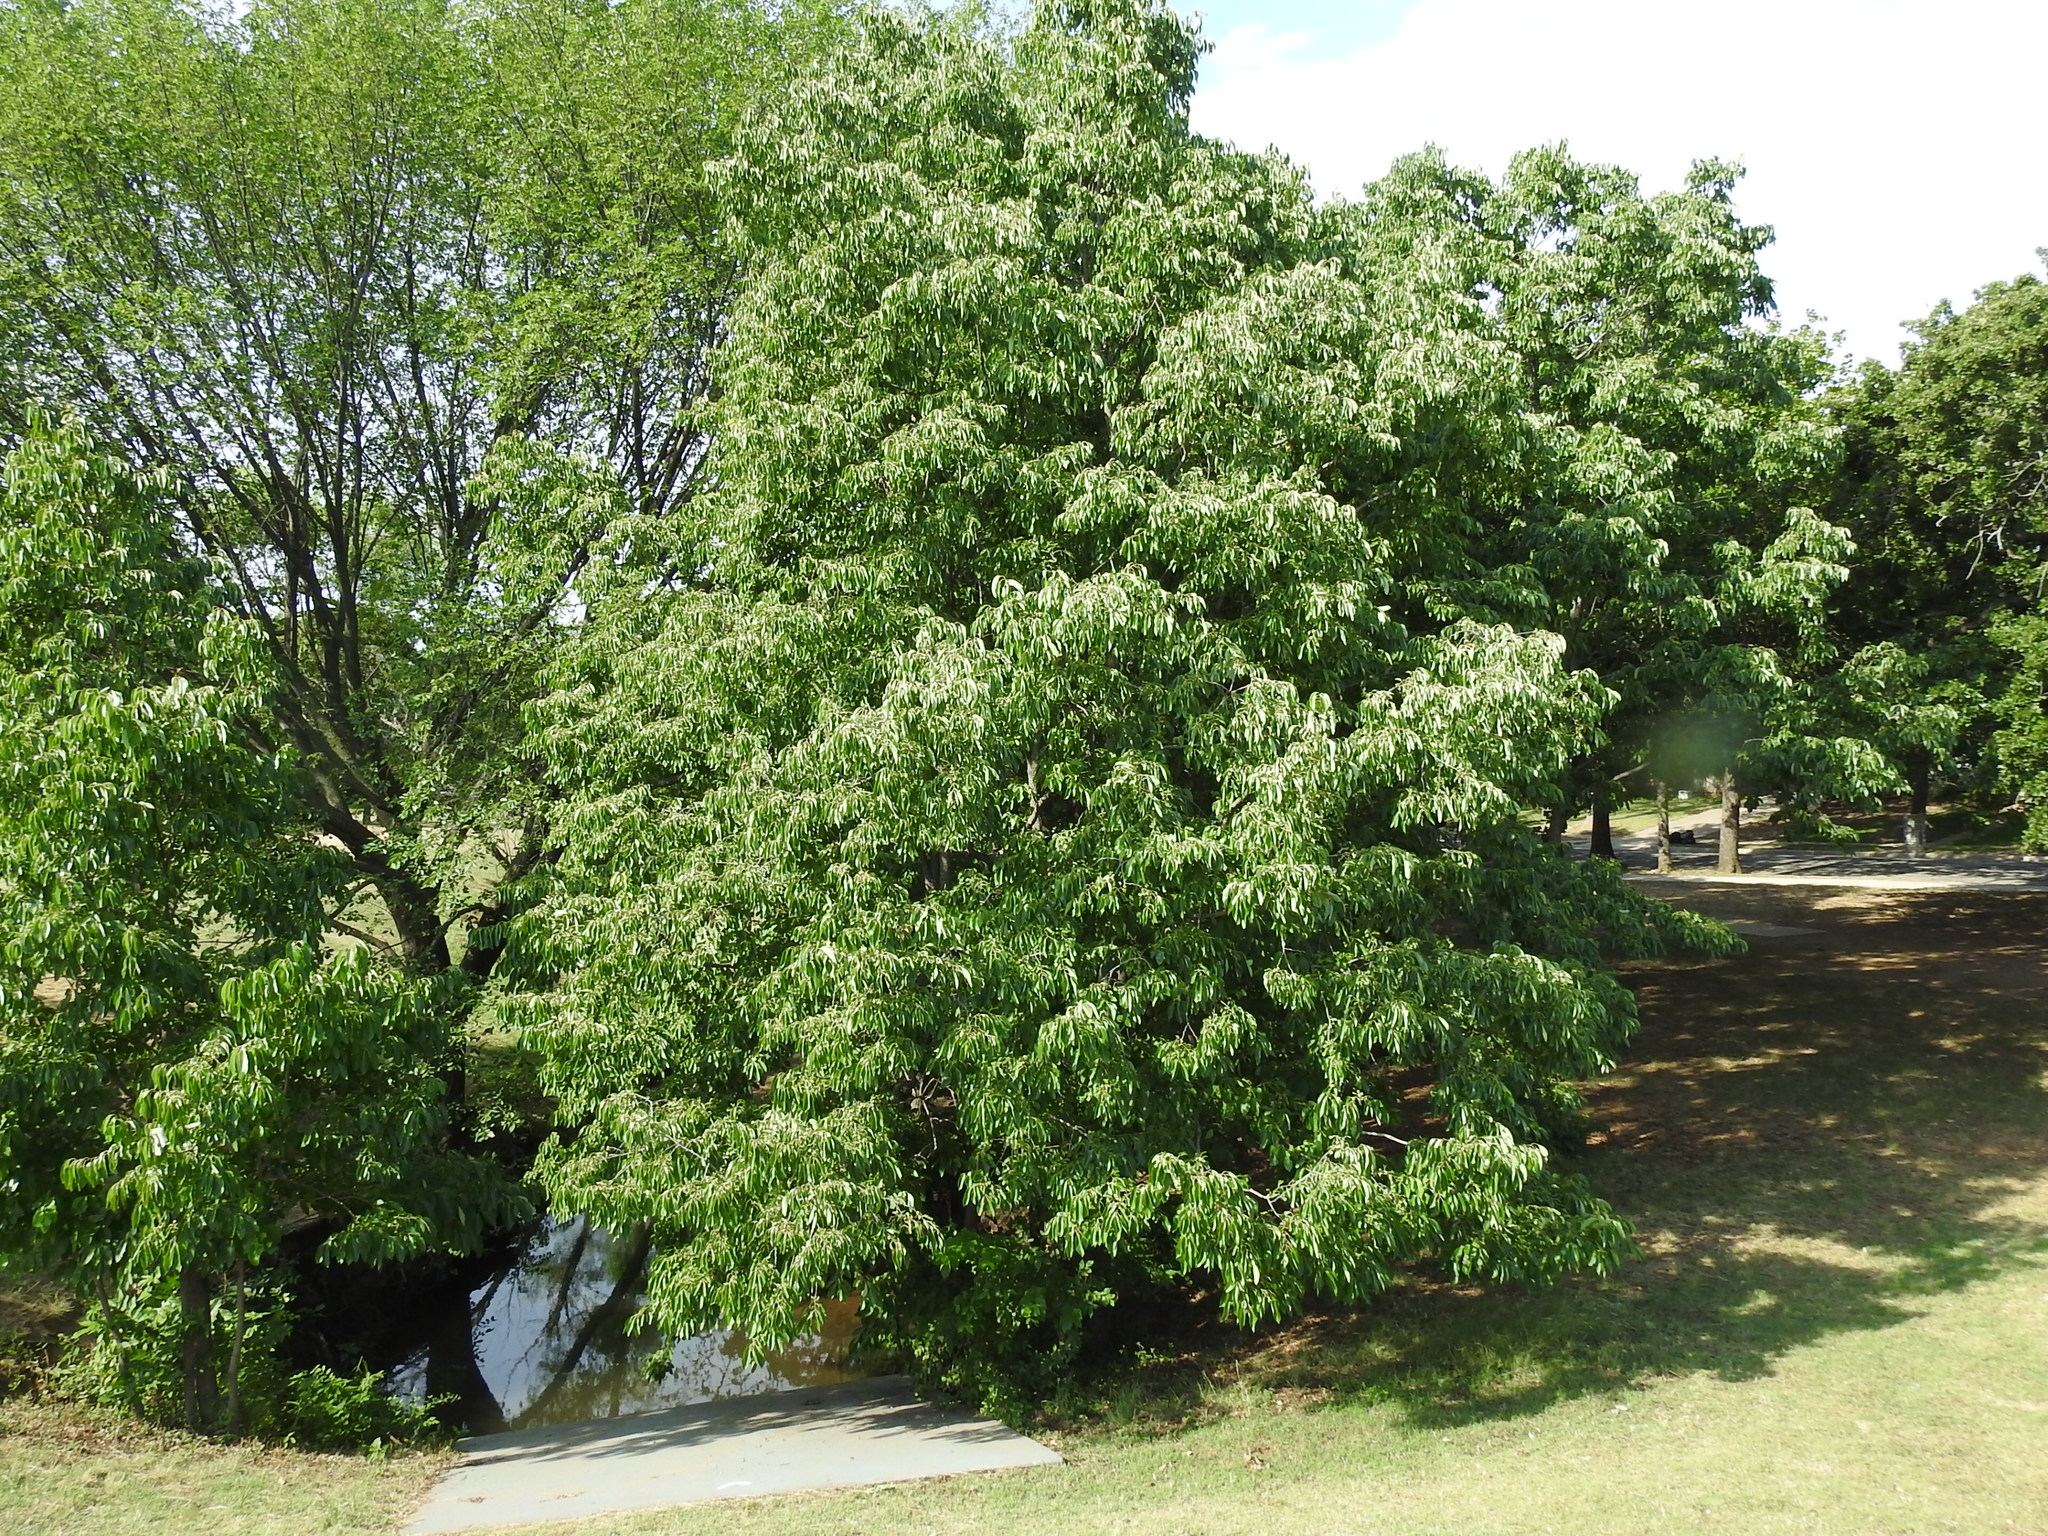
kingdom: Plantae
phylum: Tracheophyta
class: Magnoliopsida
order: Ericales
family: Ebenaceae
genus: Diospyros
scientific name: Diospyros virginiana
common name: Persimmon
